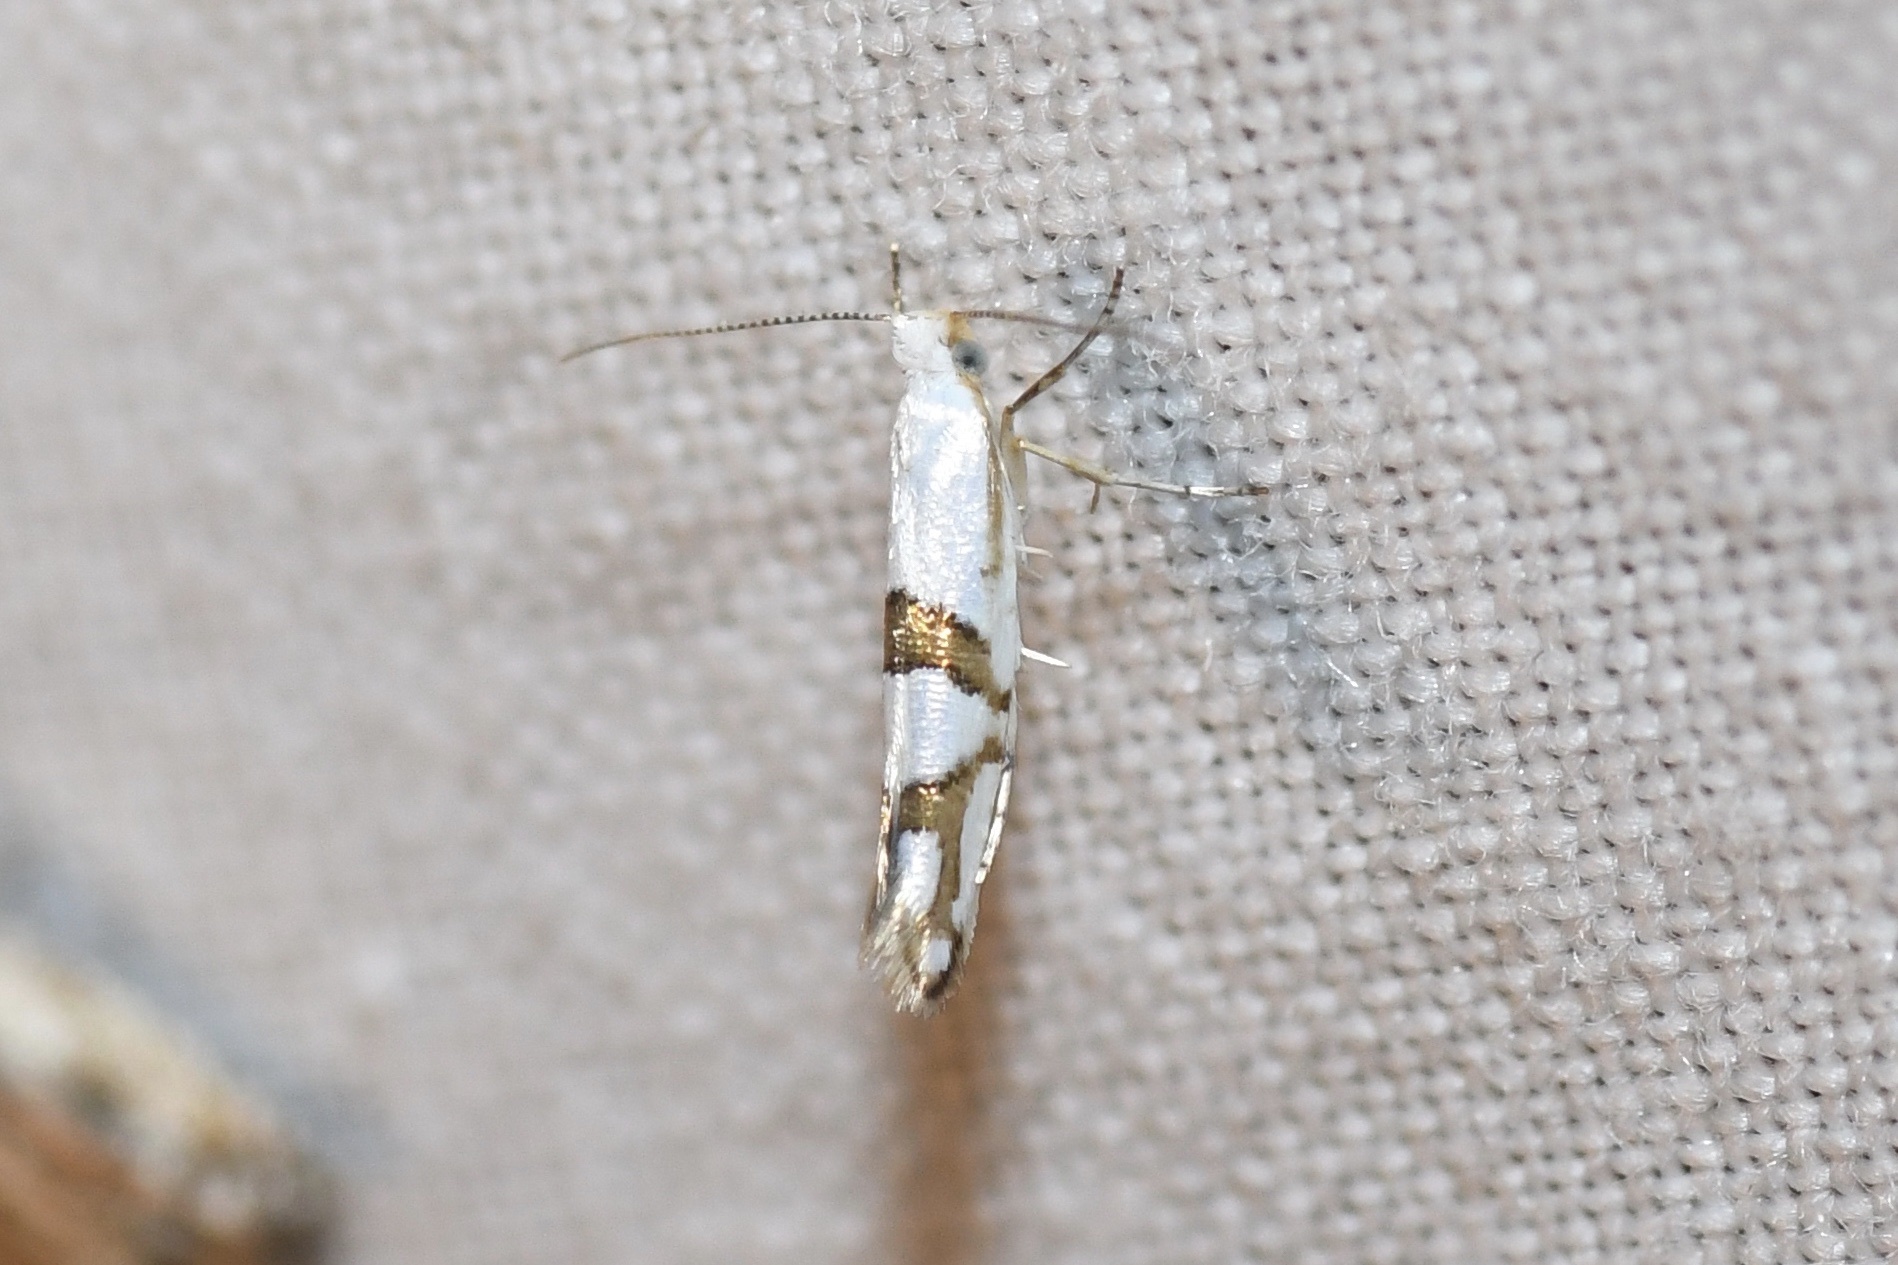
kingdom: Animalia
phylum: Arthropoda
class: Insecta
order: Lepidoptera
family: Argyresthiidae
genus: Argyresthia
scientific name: Argyresthia oreasella
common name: Cherry shoot borer moth
